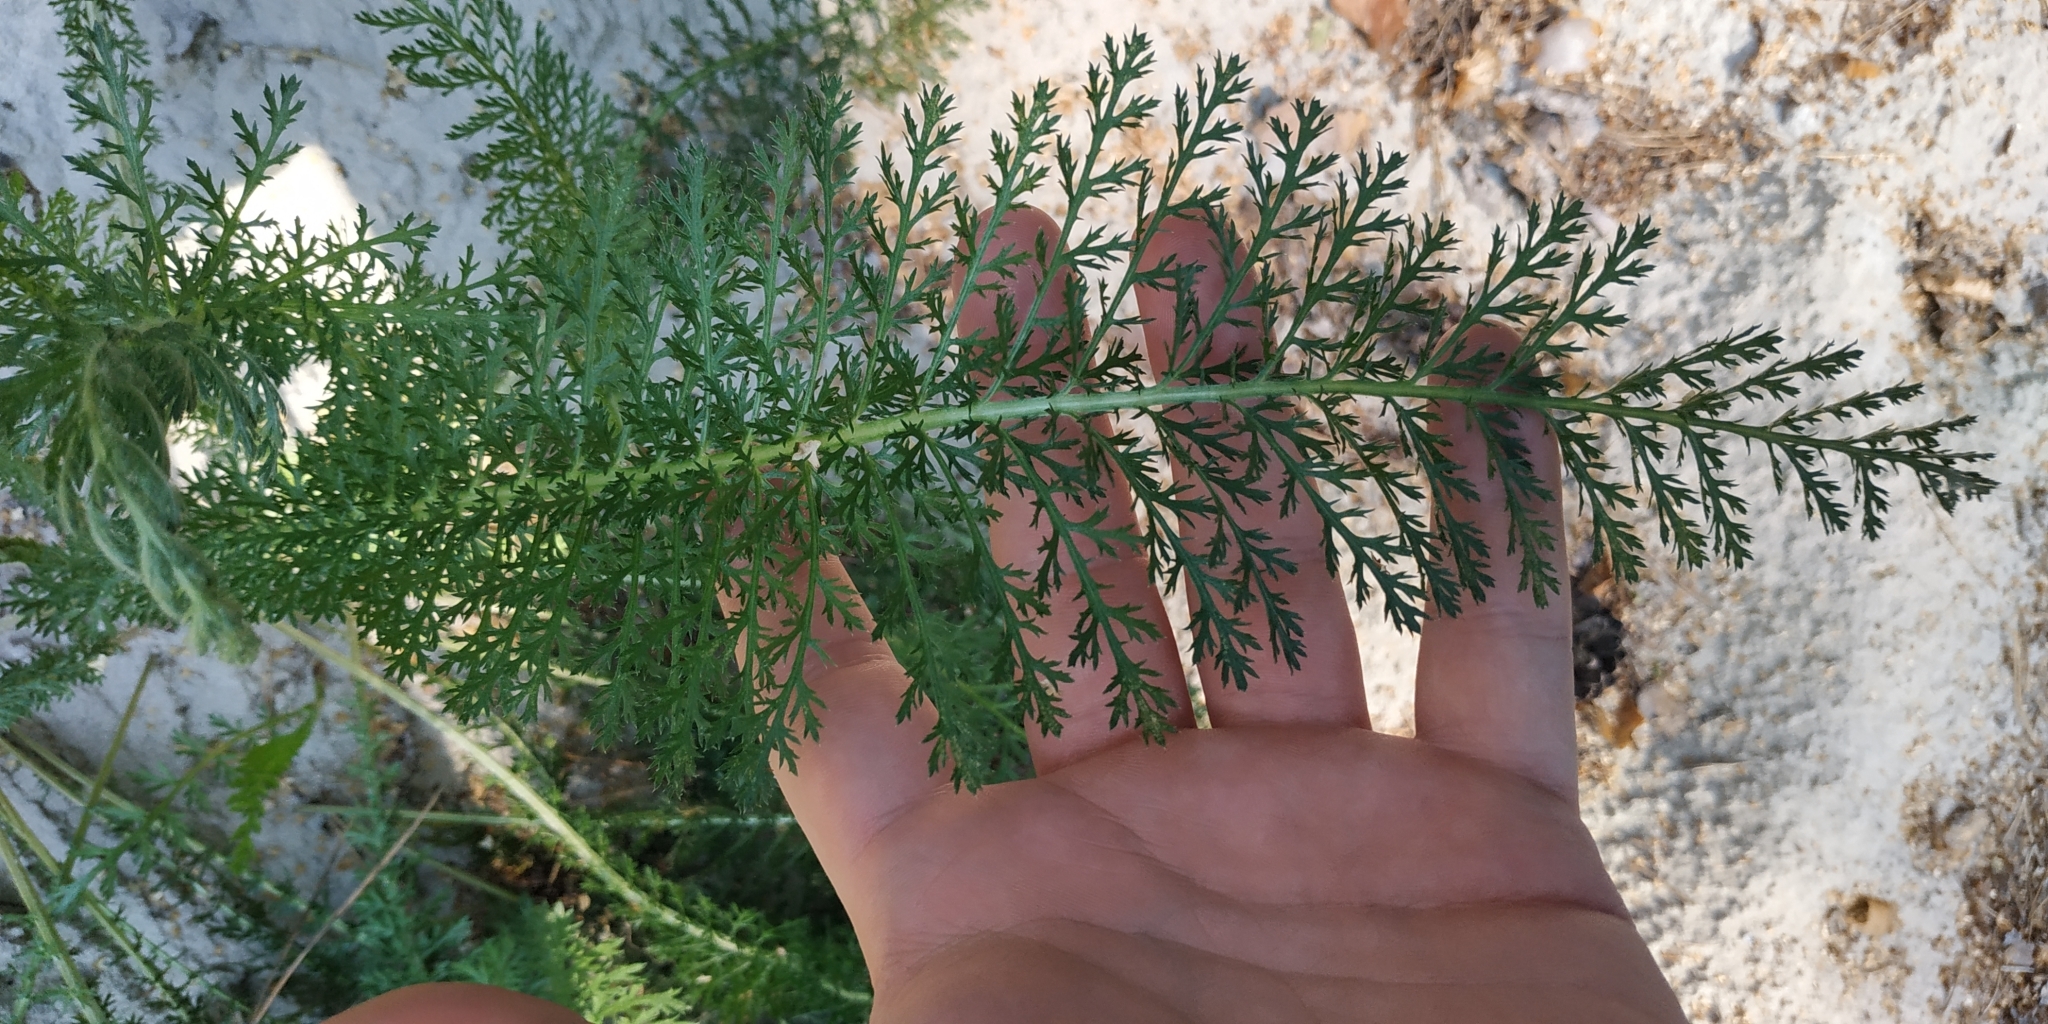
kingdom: Plantae
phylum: Tracheophyta
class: Magnoliopsida
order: Asterales
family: Asteraceae
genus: Achillea
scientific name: Achillea millefolium
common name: Yarrow
